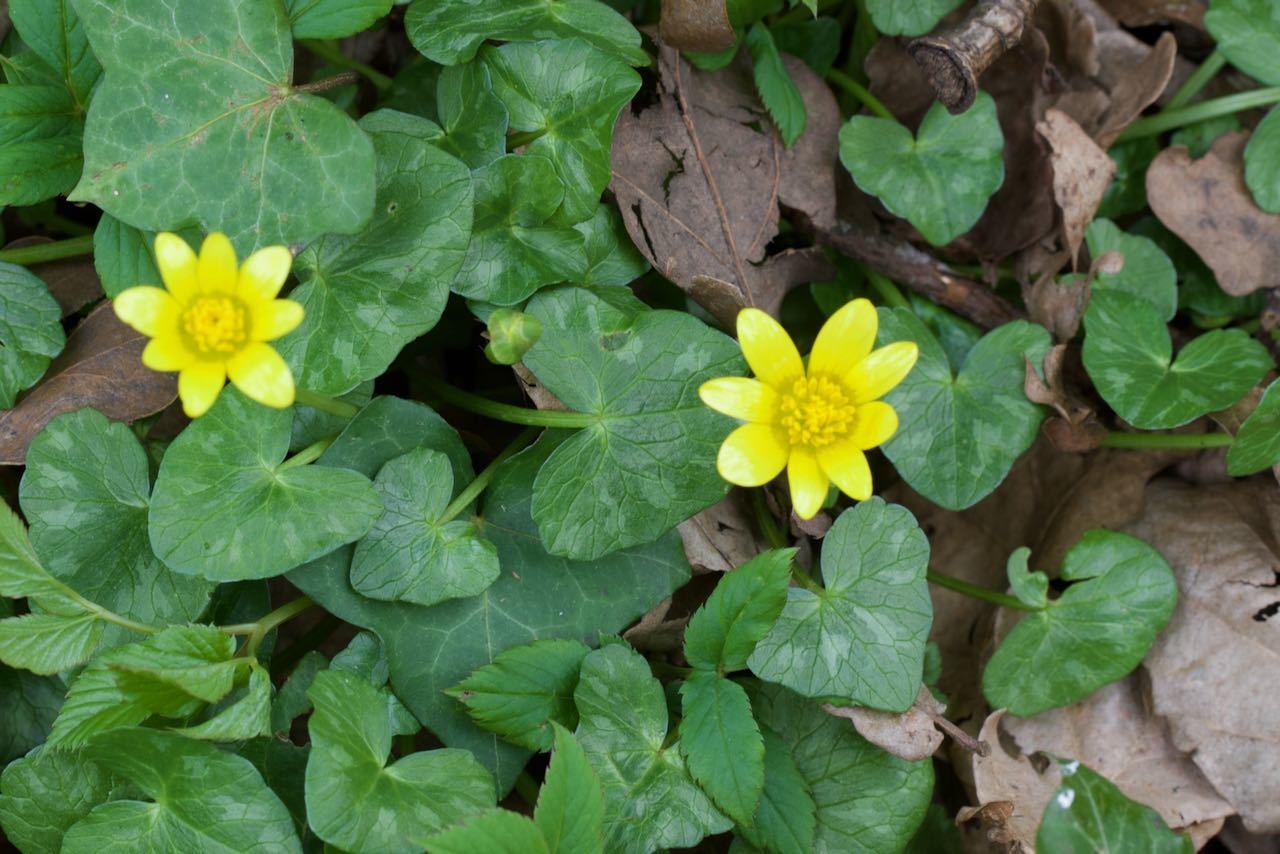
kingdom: Plantae
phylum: Tracheophyta
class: Magnoliopsida
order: Ranunculales
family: Ranunculaceae
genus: Ficaria
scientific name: Ficaria verna
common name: Lesser celandine
